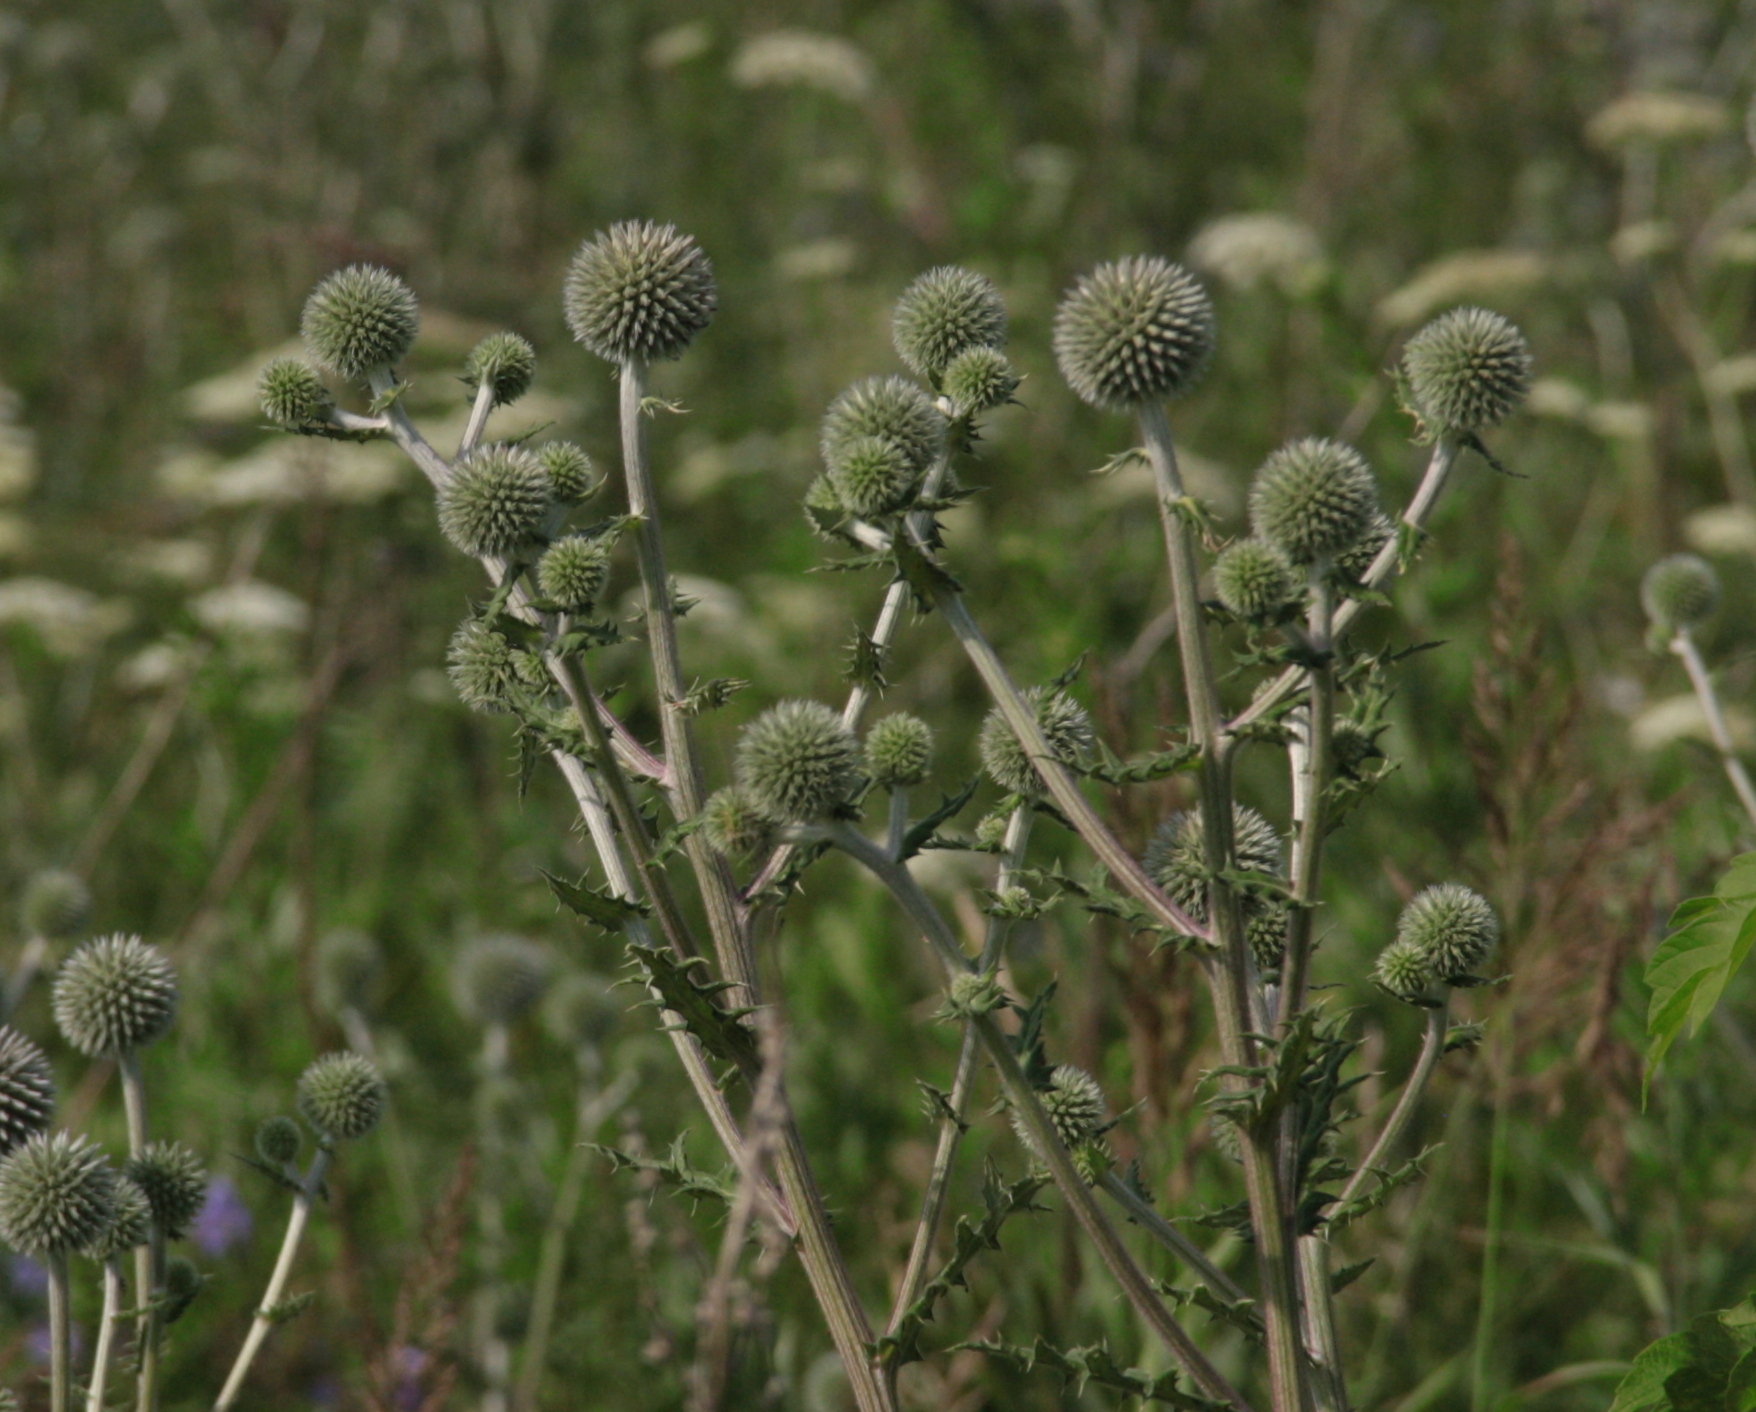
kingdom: Plantae
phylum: Tracheophyta
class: Magnoliopsida
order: Asterales
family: Asteraceae
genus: Echinops
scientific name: Echinops sphaerocephalus
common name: Glandular globe-thistle
